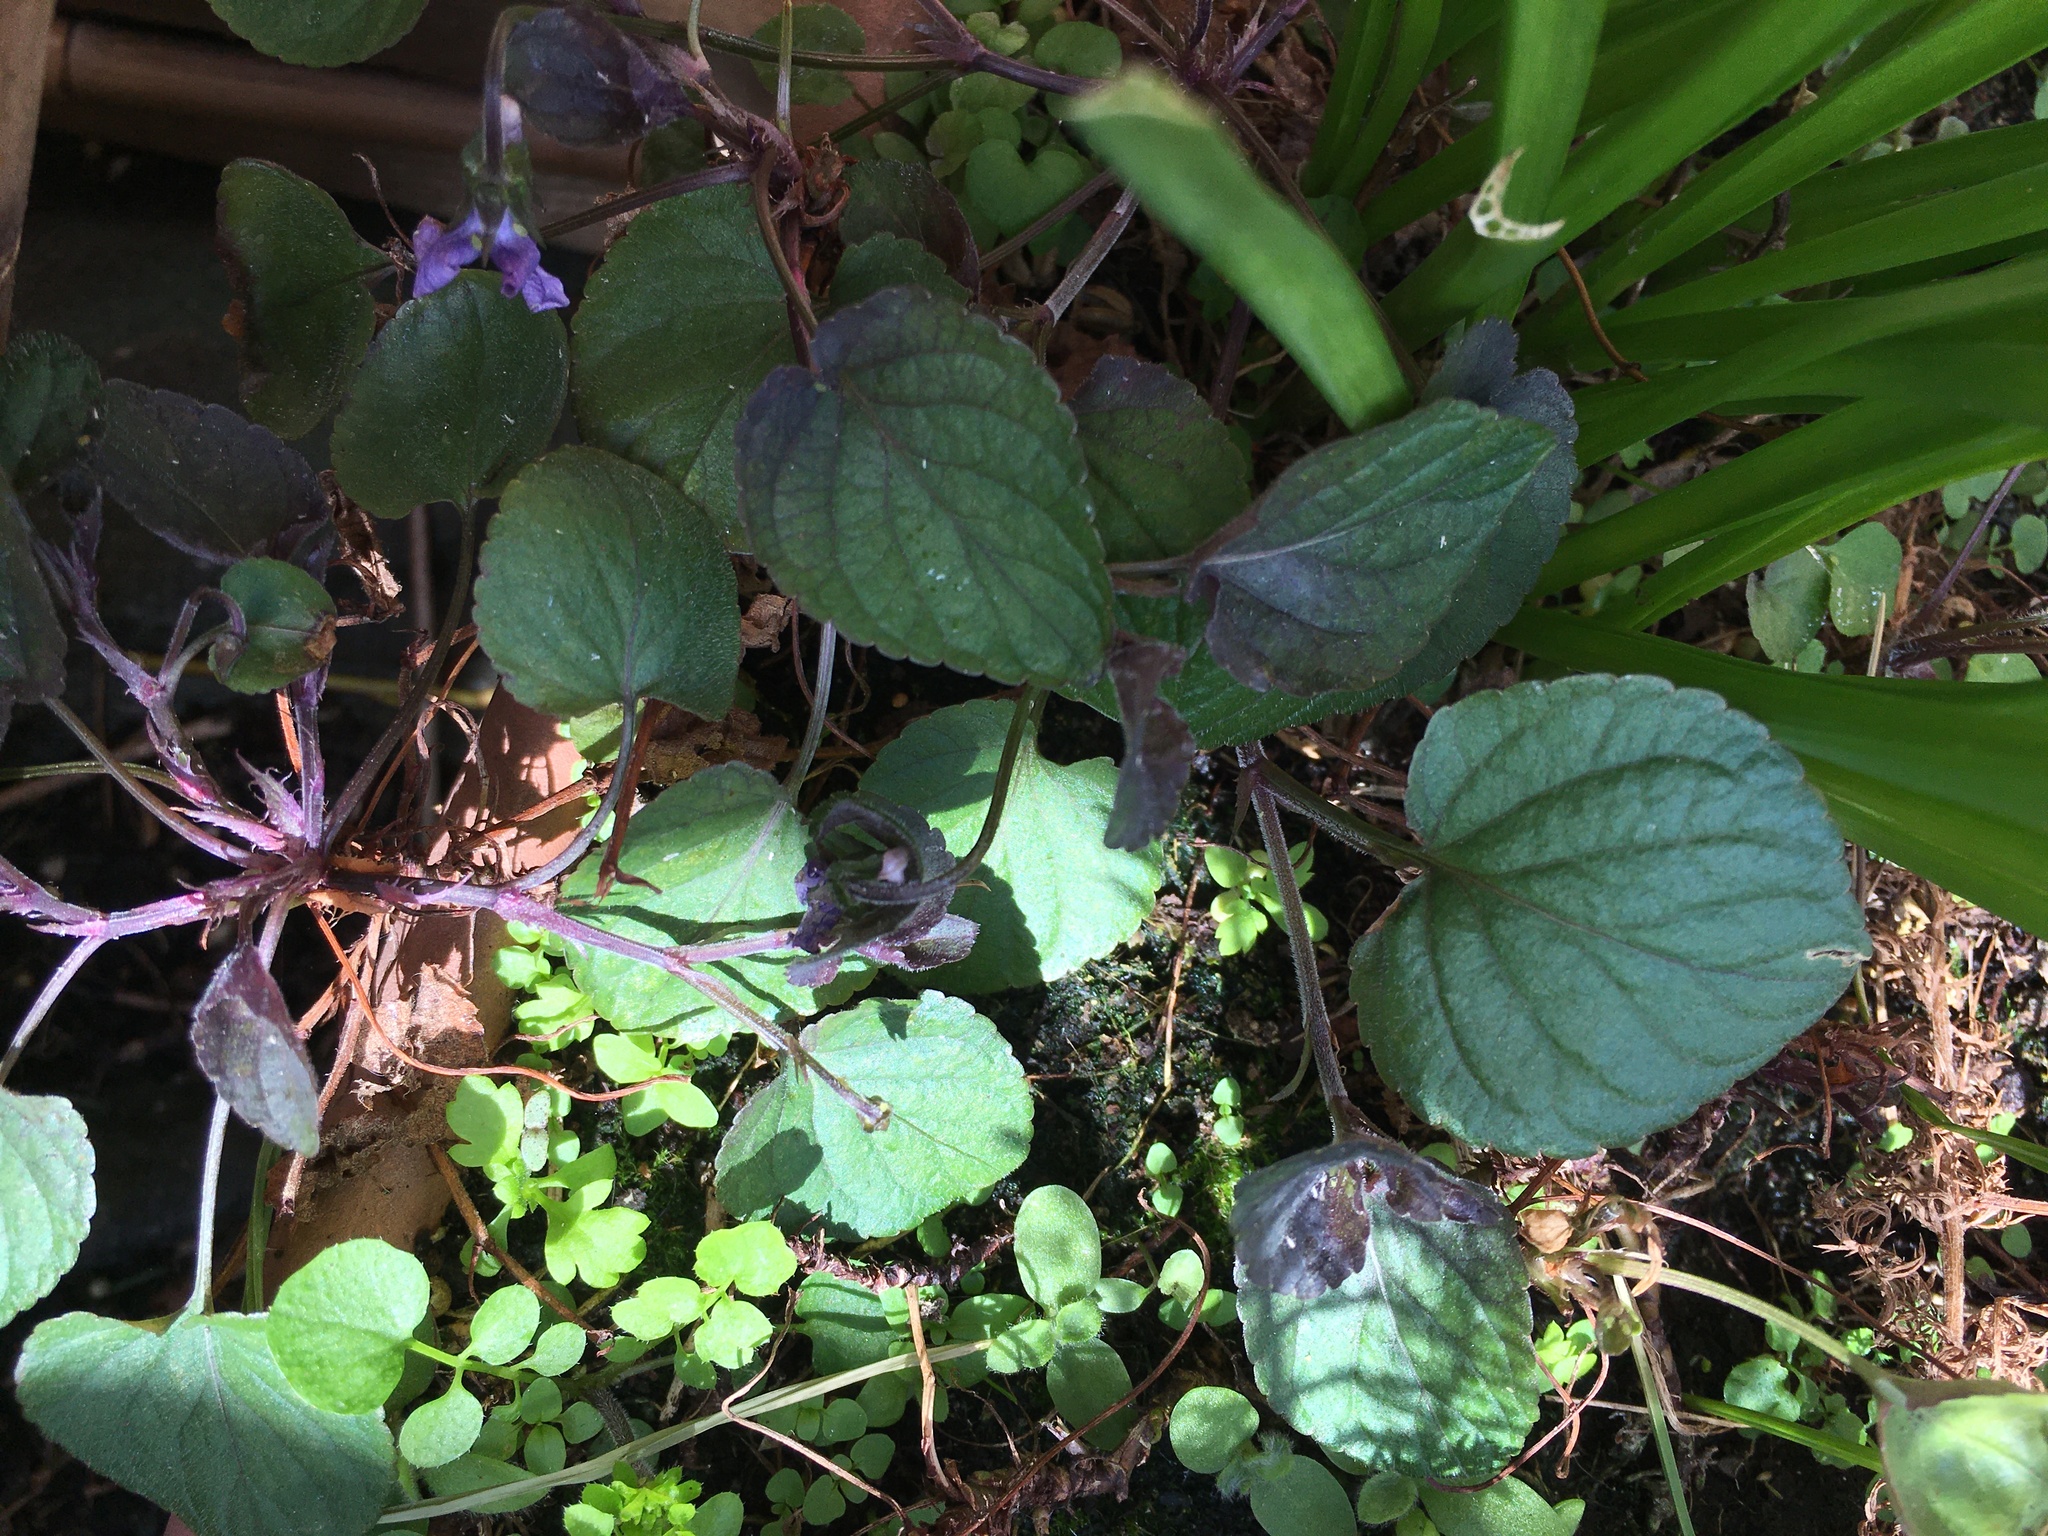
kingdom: Plantae
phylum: Tracheophyta
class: Magnoliopsida
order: Malpighiales
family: Violaceae
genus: Viola
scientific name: Viola riviniana
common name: Common dog-violet
